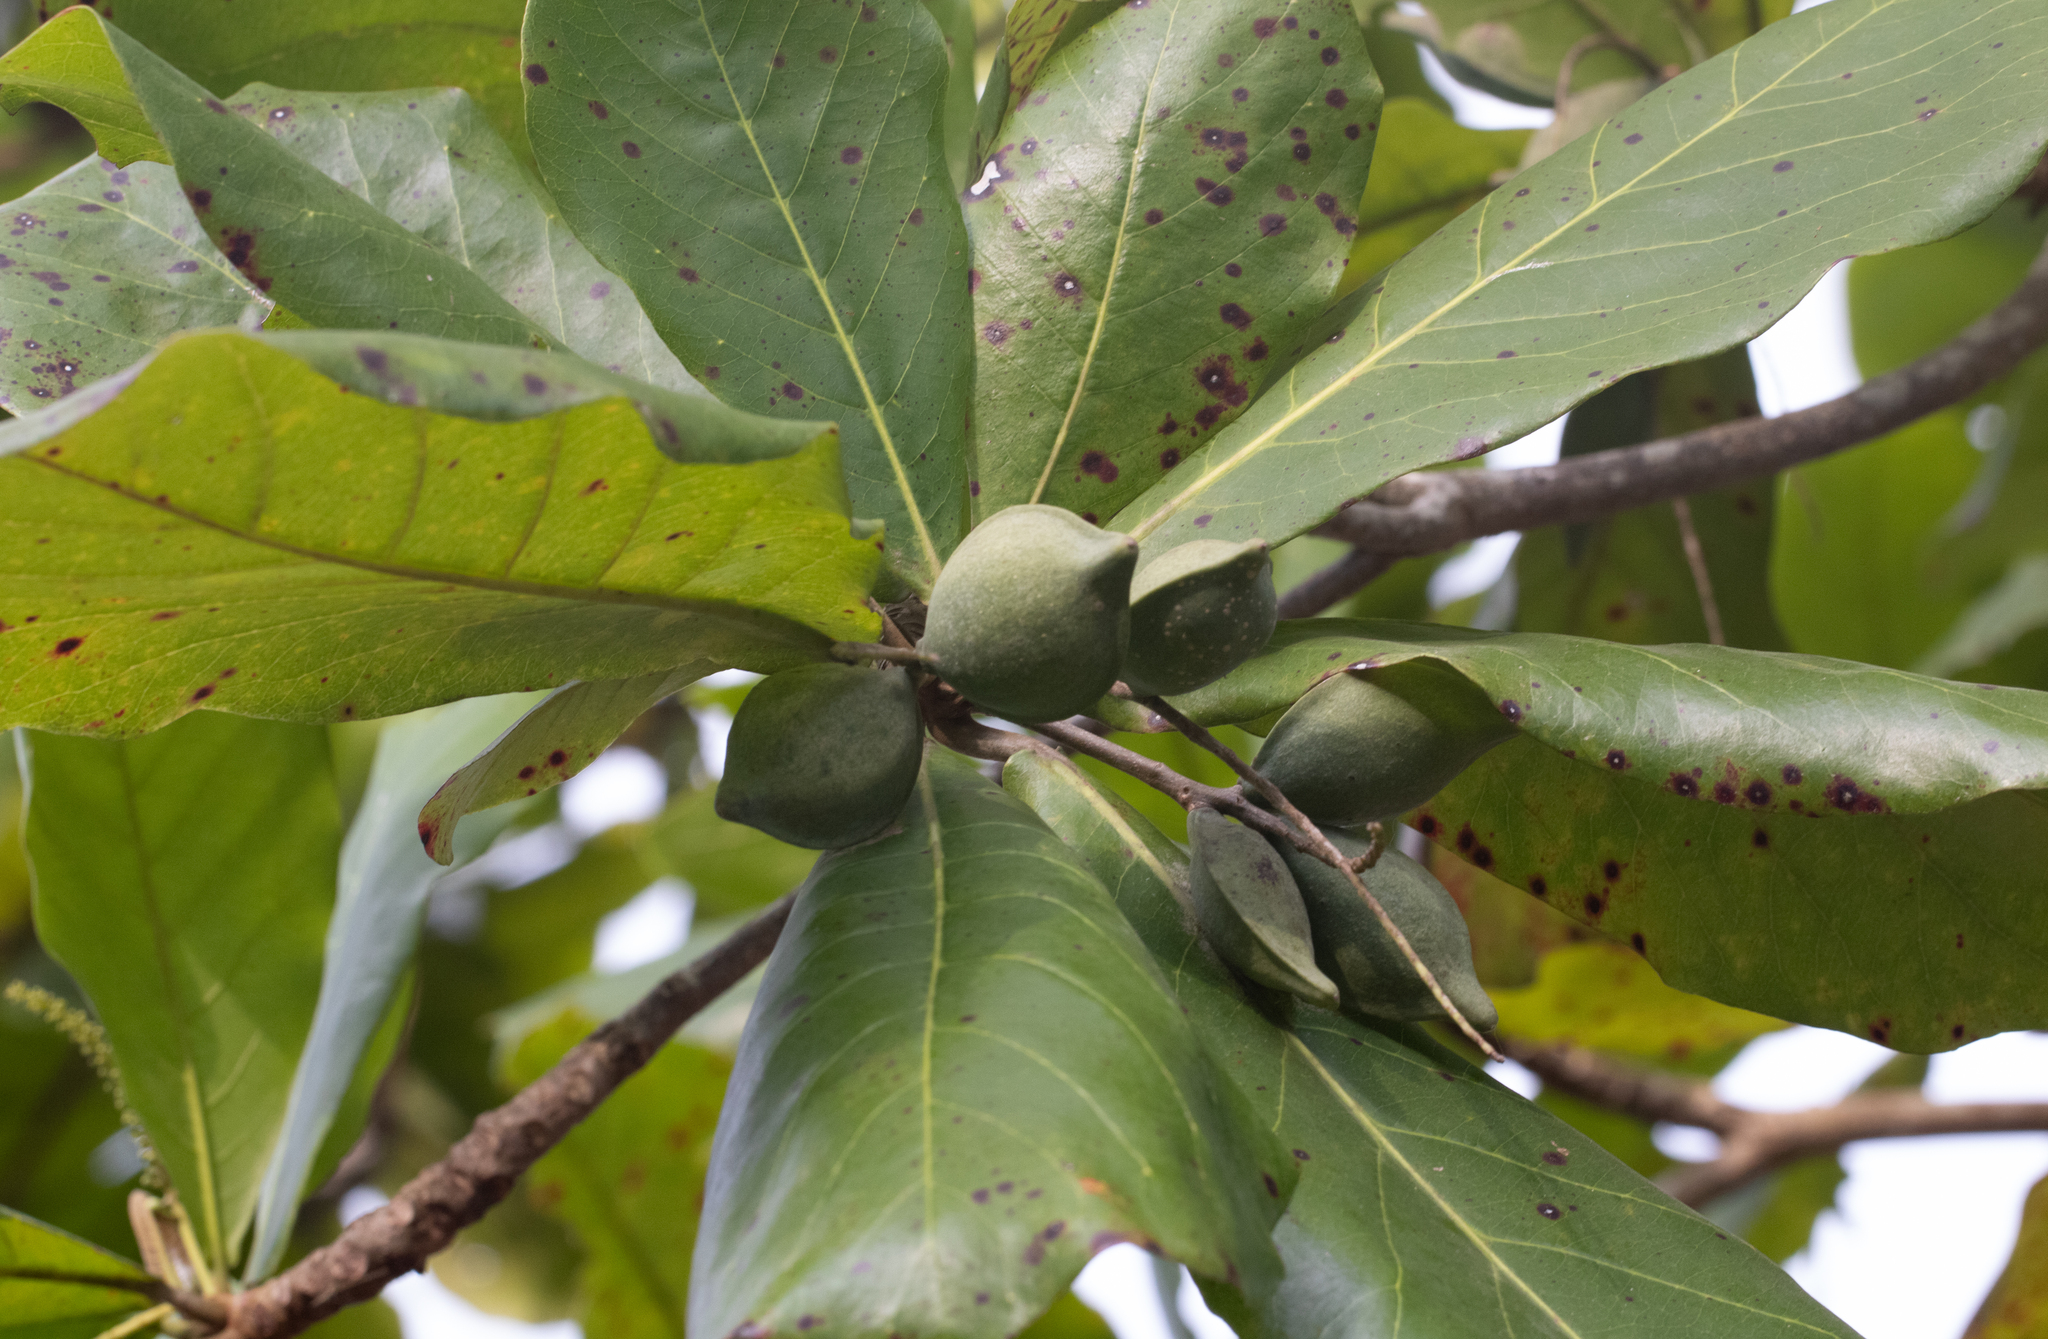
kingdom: Plantae
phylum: Tracheophyta
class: Magnoliopsida
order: Myrtales
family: Combretaceae
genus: Terminalia
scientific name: Terminalia catappa
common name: Tropical almond
